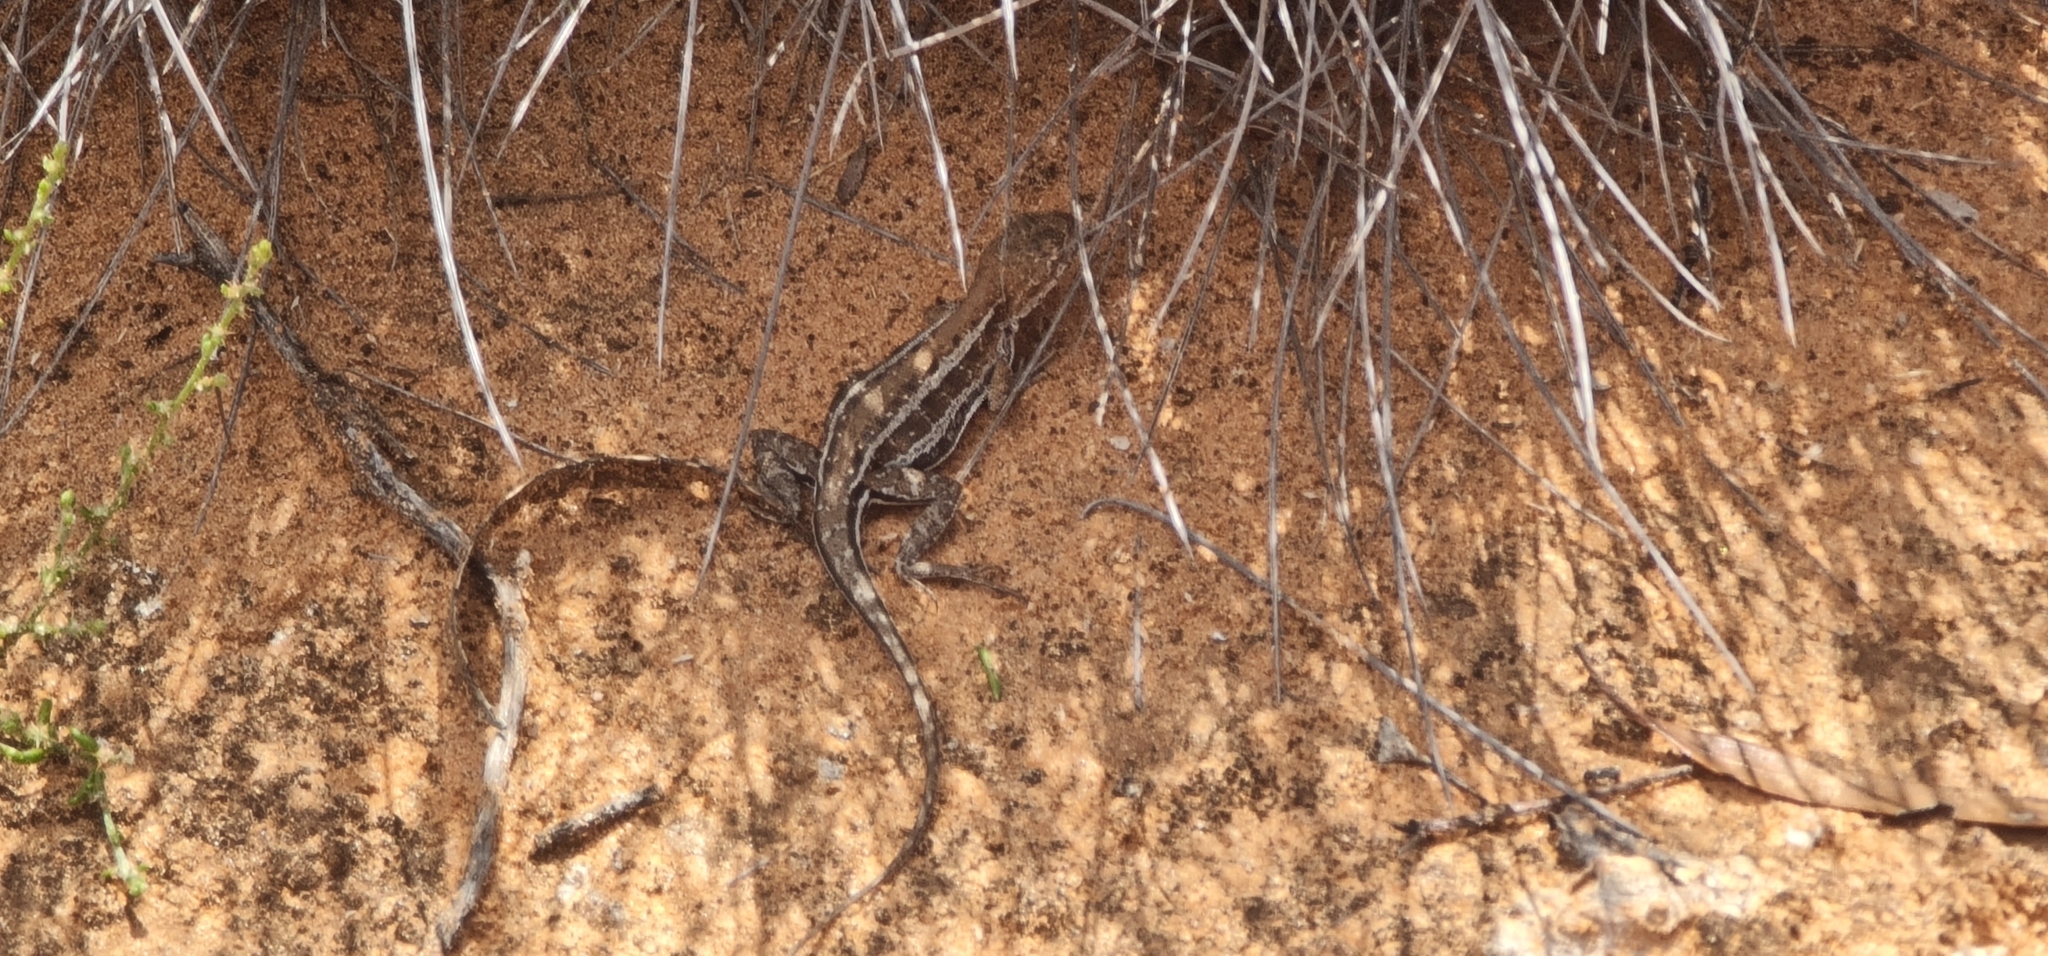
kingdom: Animalia
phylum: Chordata
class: Squamata
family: Agamidae
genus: Ctenophorus
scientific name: Ctenophorus spinodomus
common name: Eastern mallee dragon
